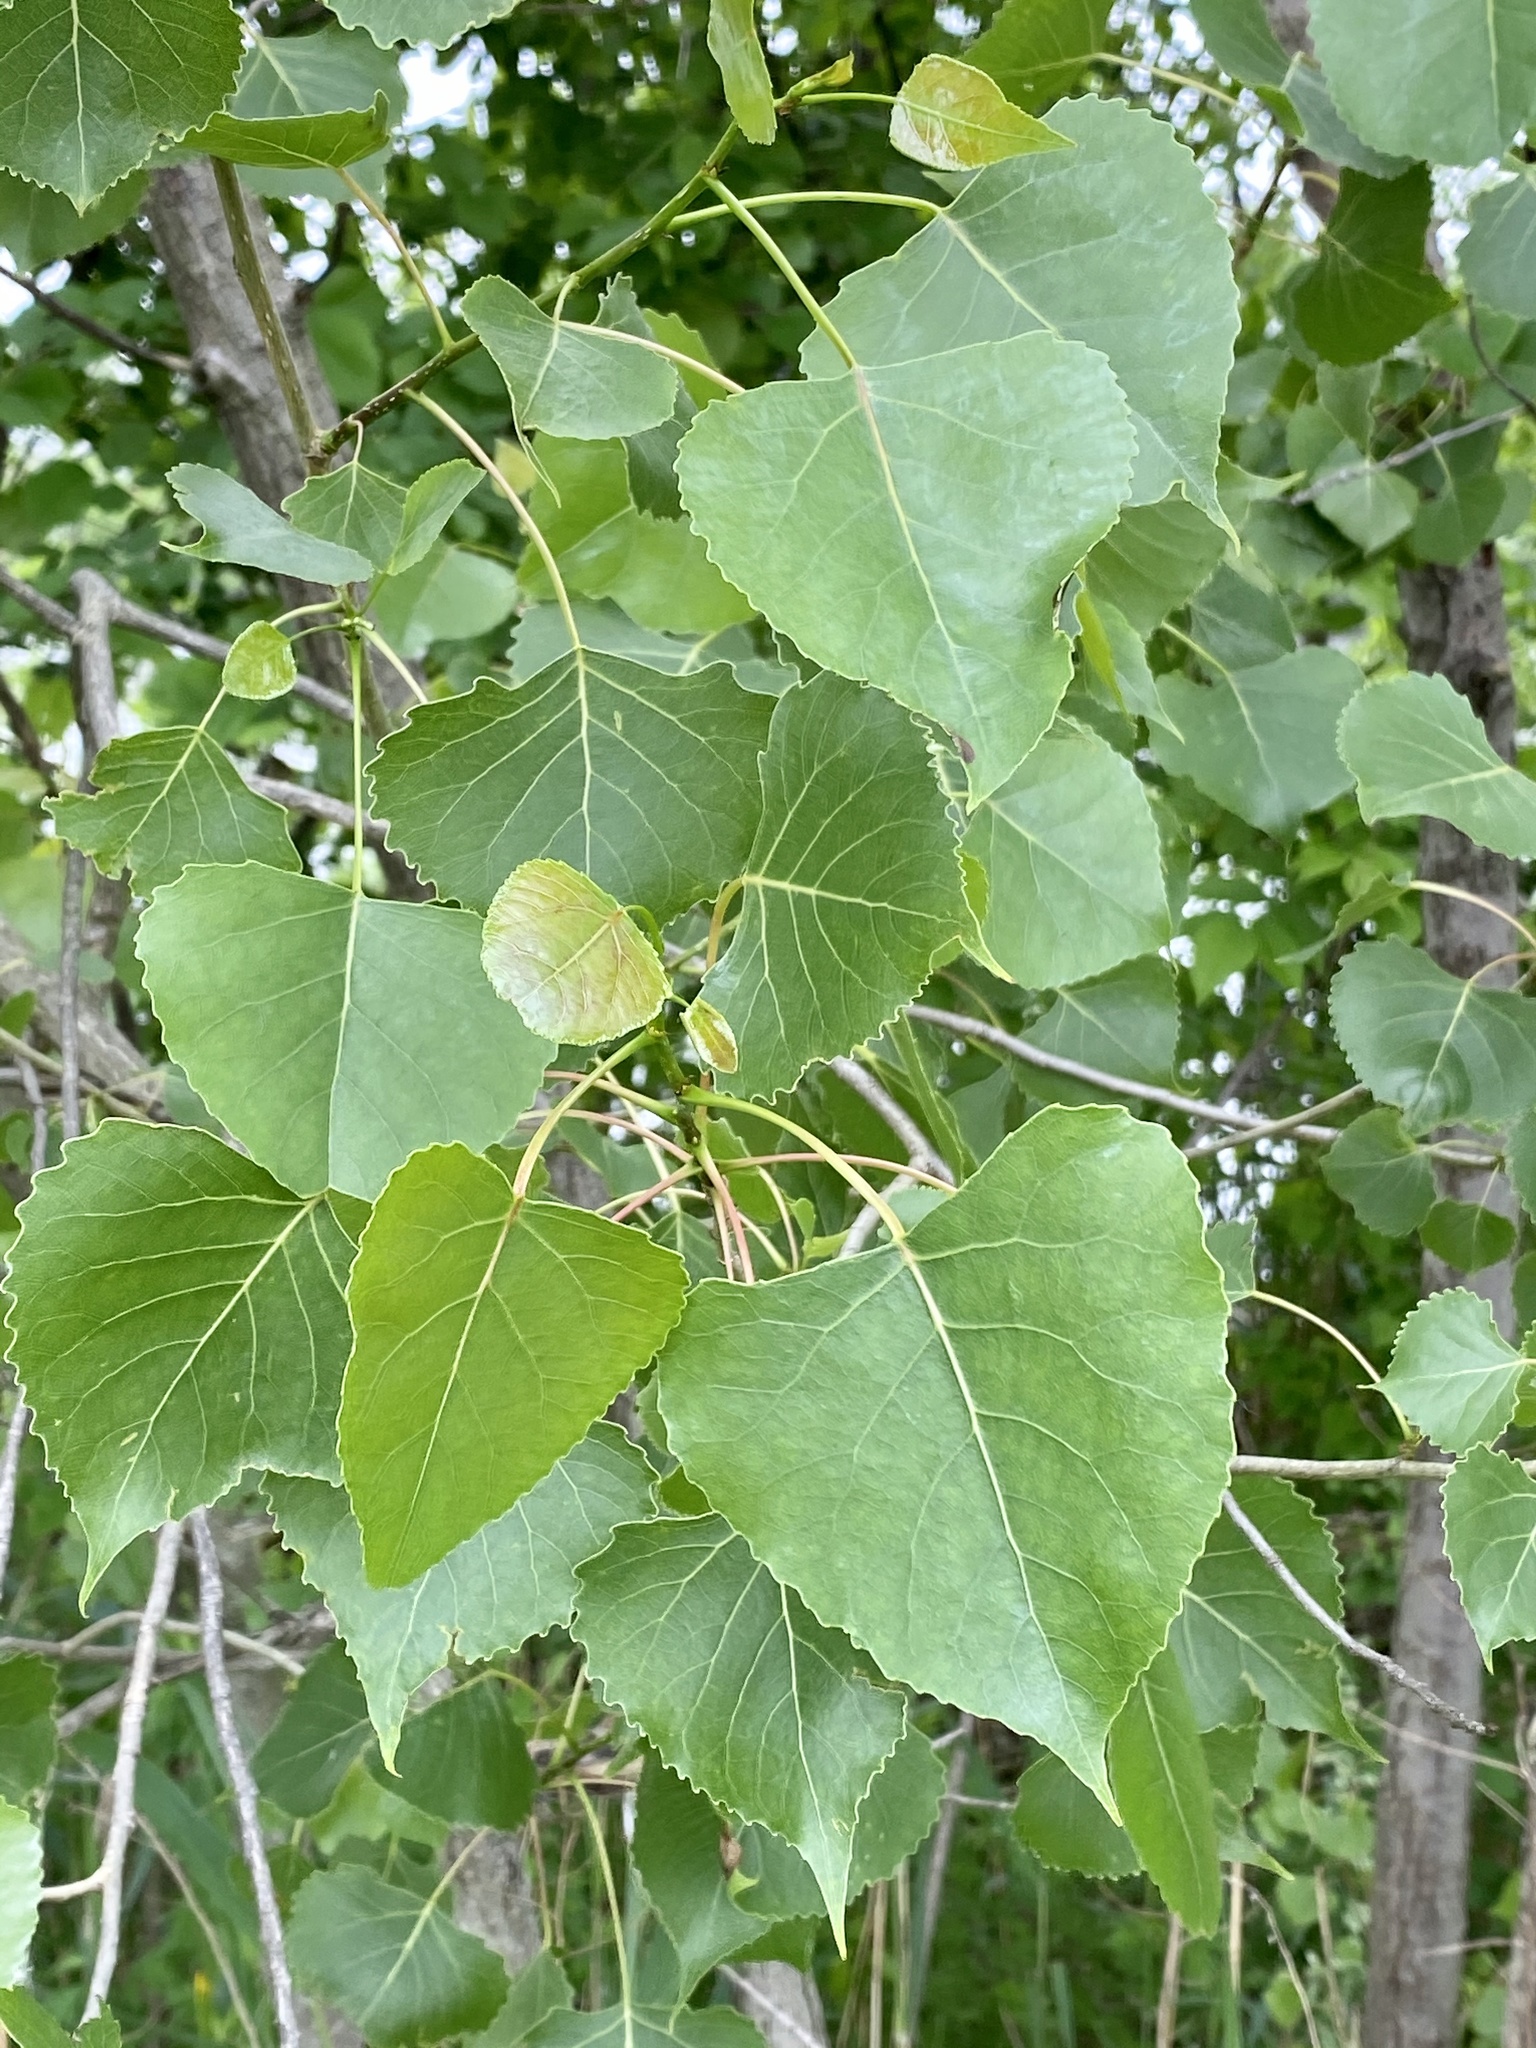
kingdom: Plantae
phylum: Tracheophyta
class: Magnoliopsida
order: Malpighiales
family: Salicaceae
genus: Populus
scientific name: Populus deltoides
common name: Eastern cottonwood
